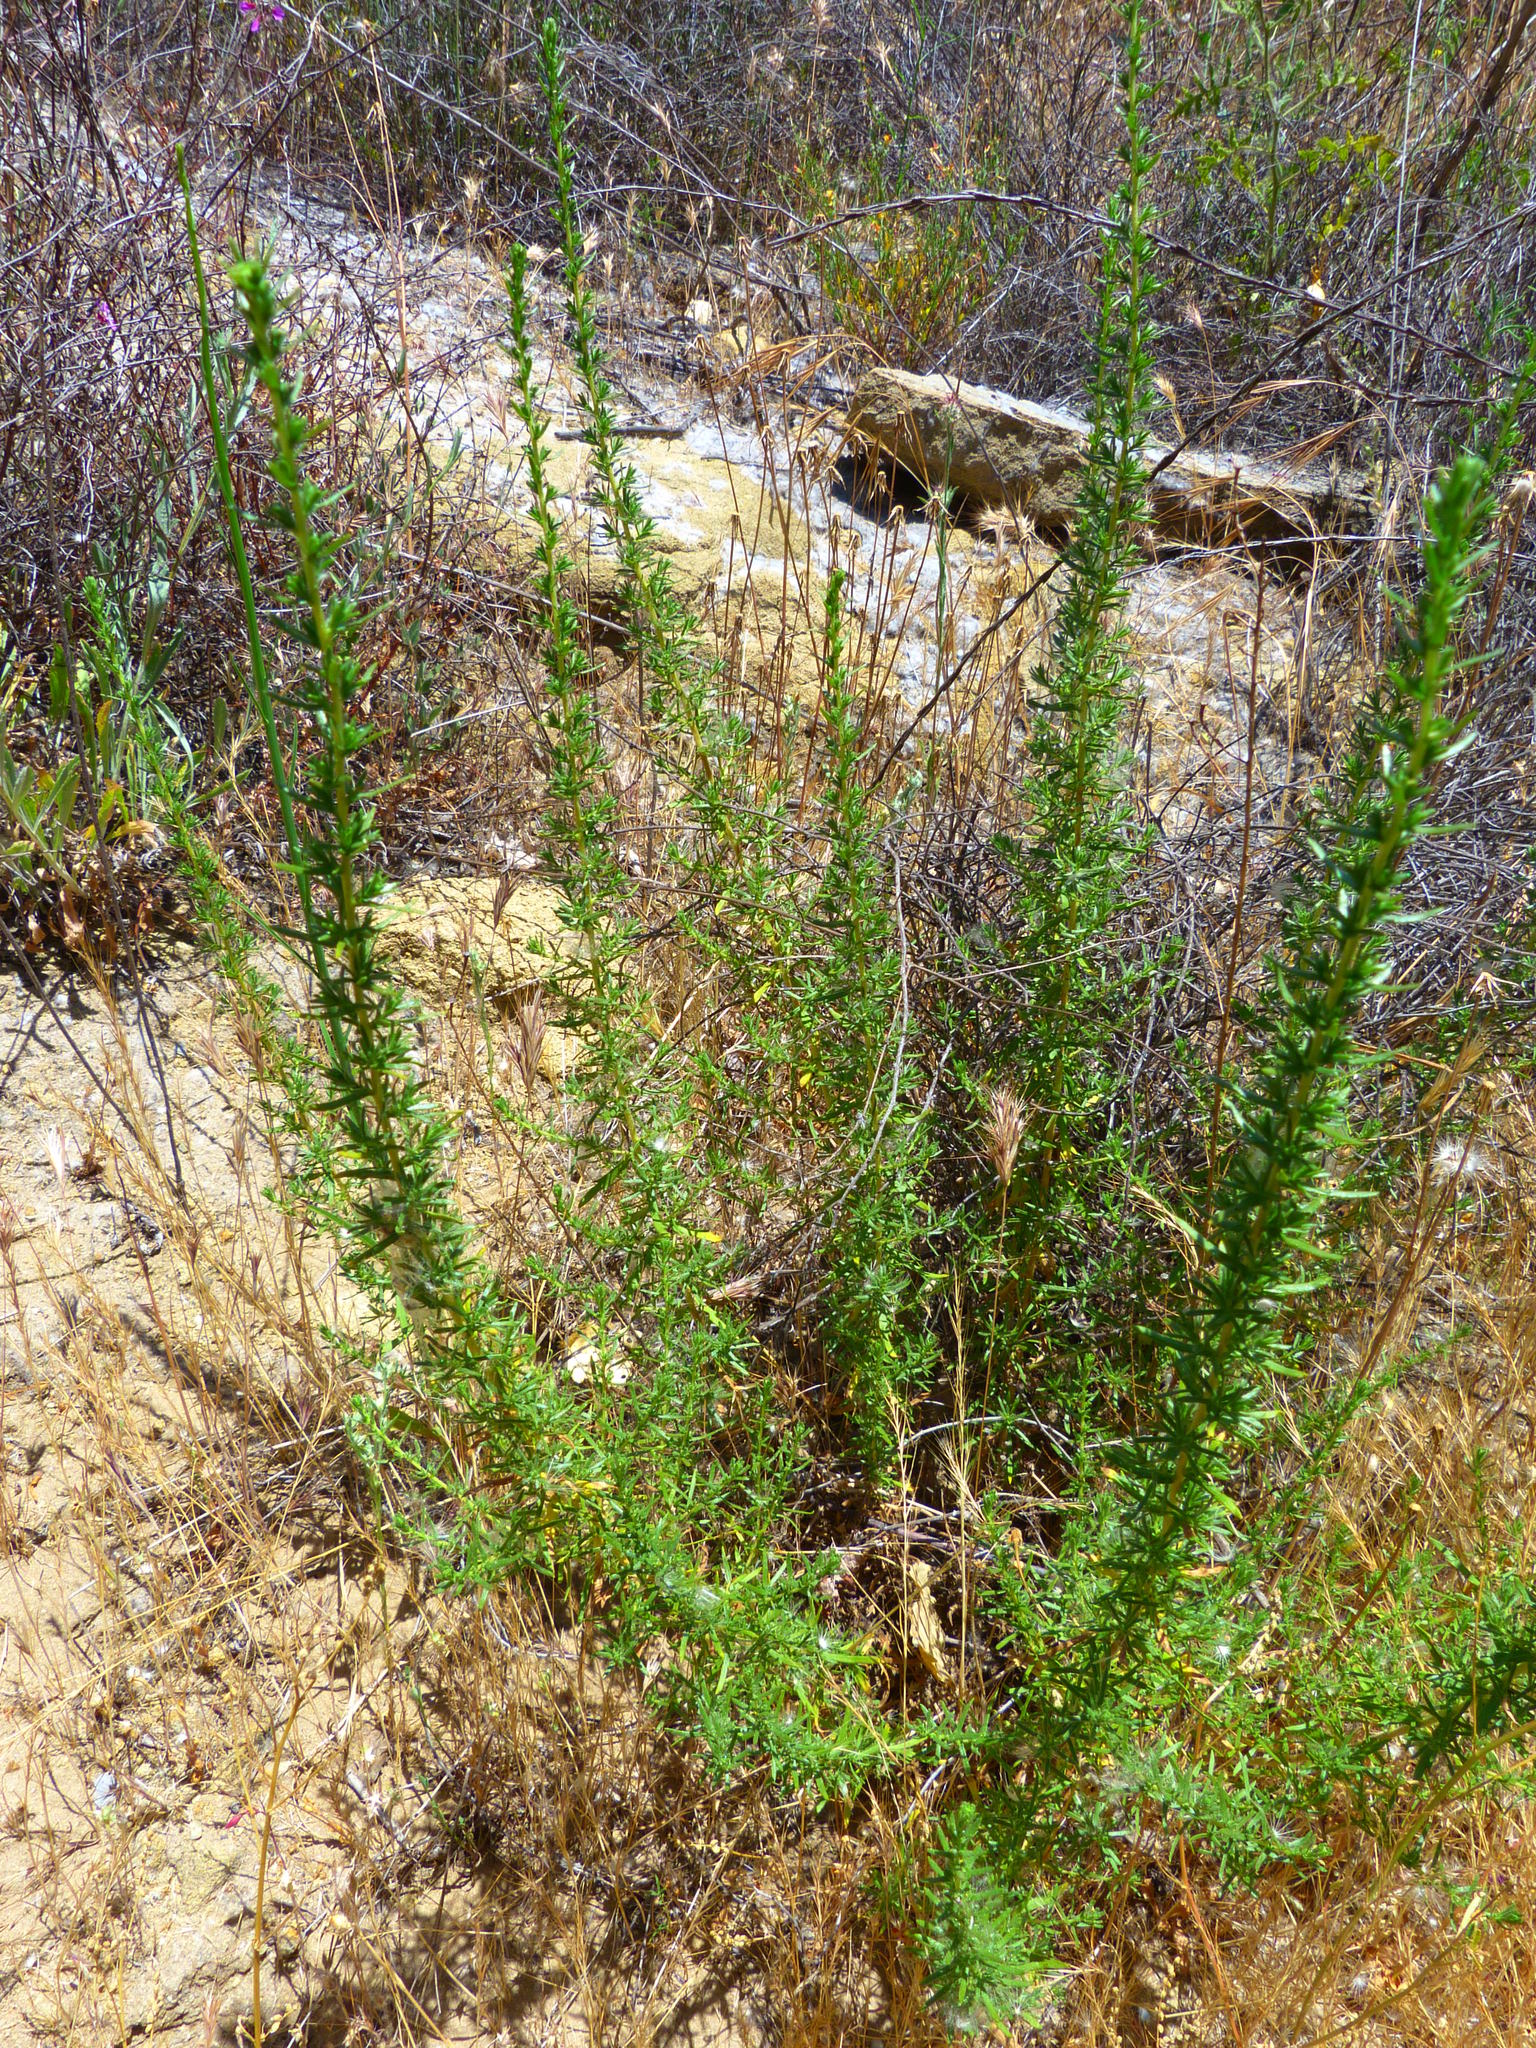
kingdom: Plantae
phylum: Tracheophyta
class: Magnoliopsida
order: Asterales
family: Asteraceae
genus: Deinandra
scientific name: Deinandra minthornii
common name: Santa susana tarplant
